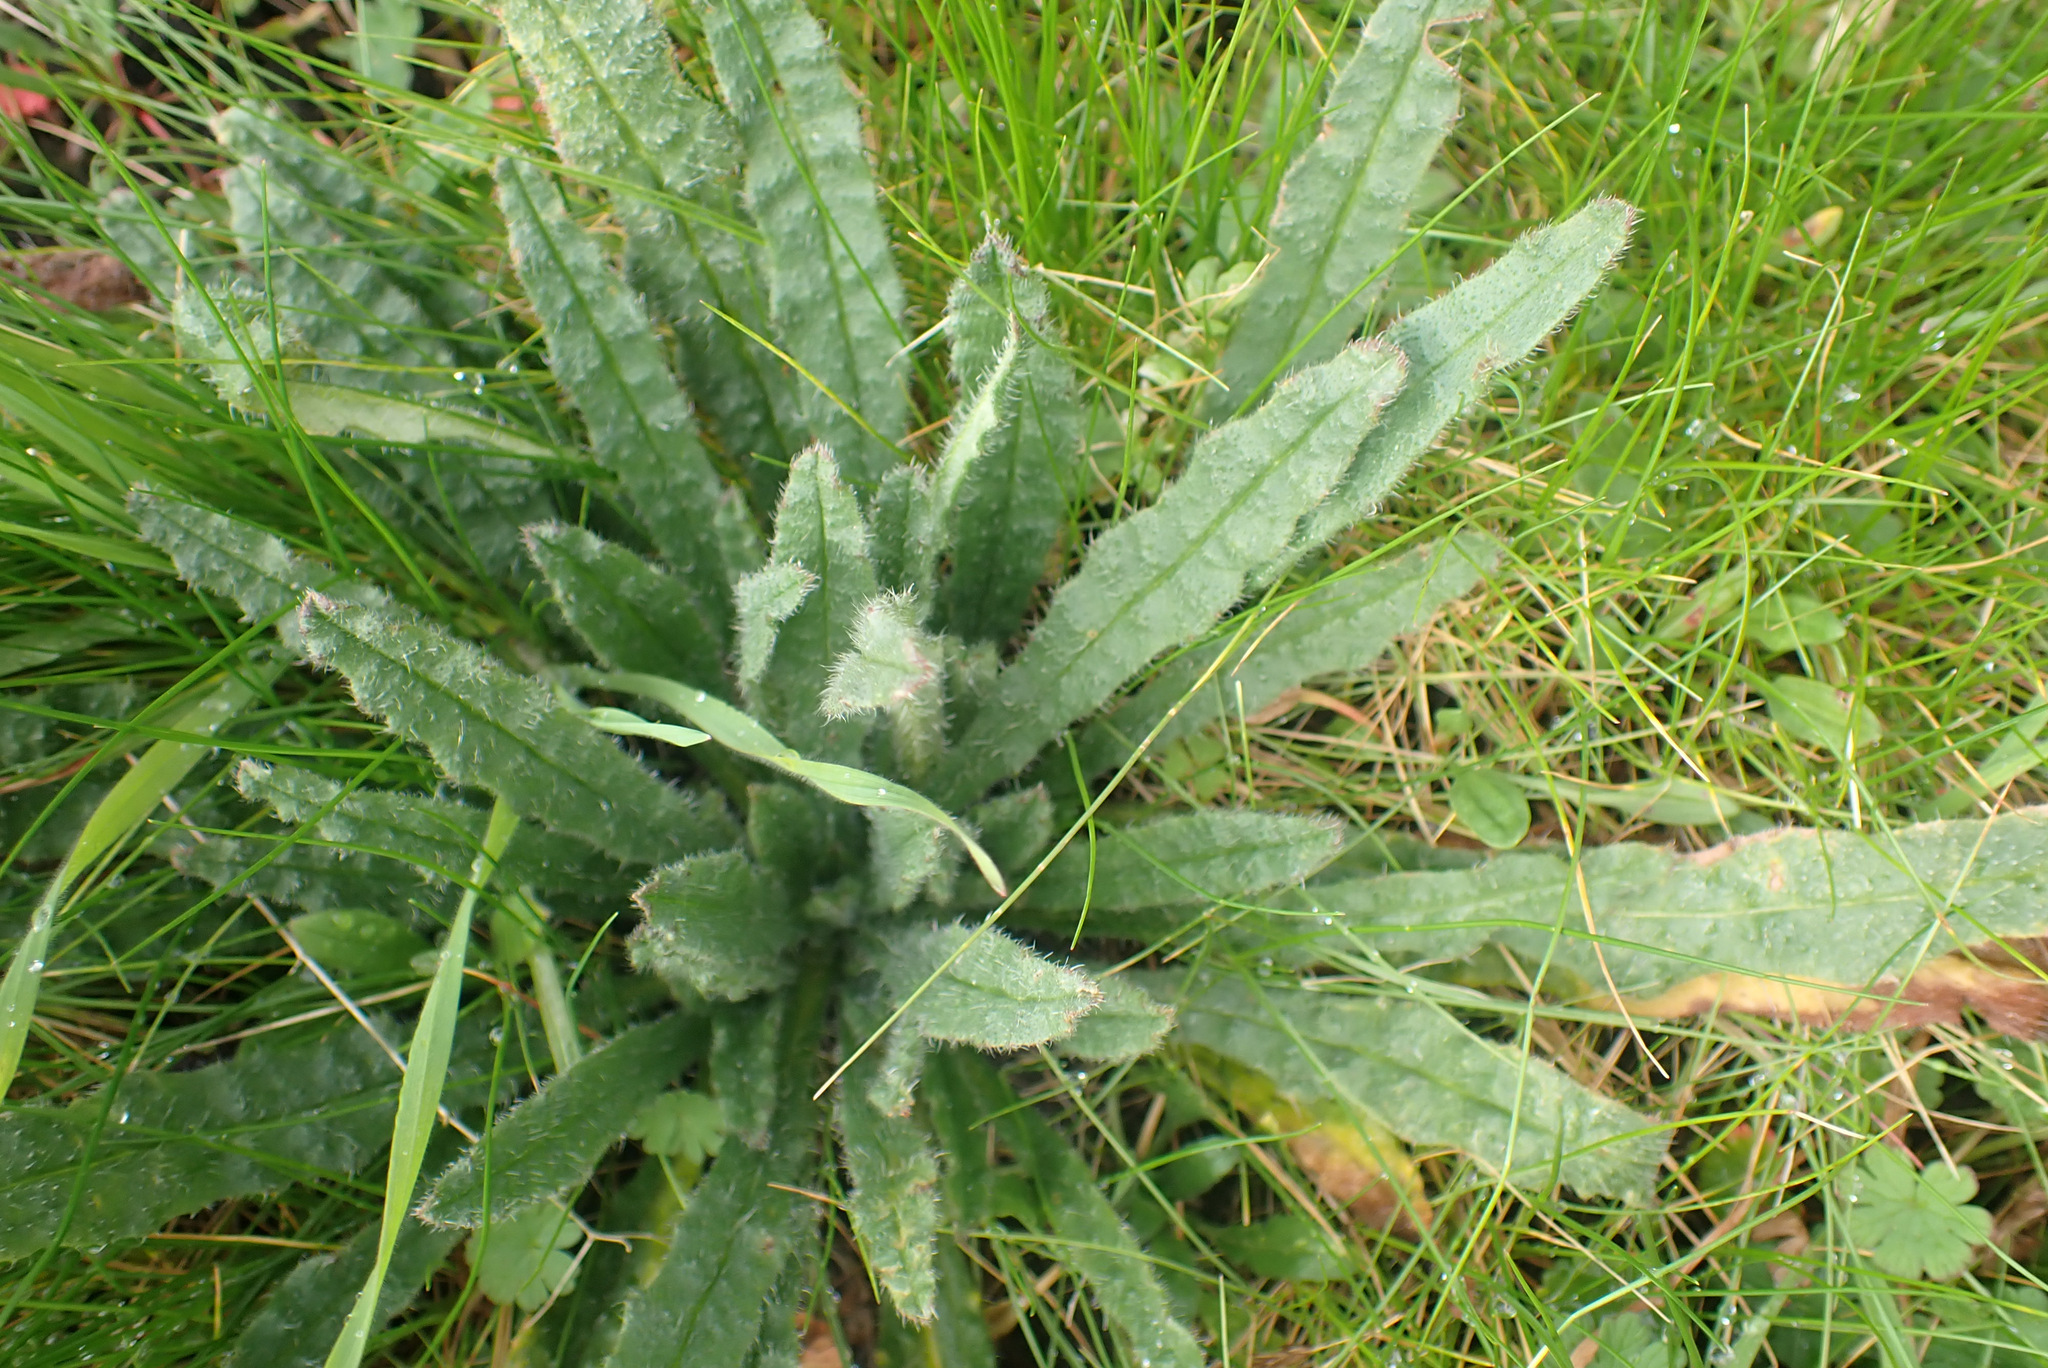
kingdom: Plantae
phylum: Tracheophyta
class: Magnoliopsida
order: Boraginales
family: Boraginaceae
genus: Lycopsis
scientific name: Lycopsis arvensis
